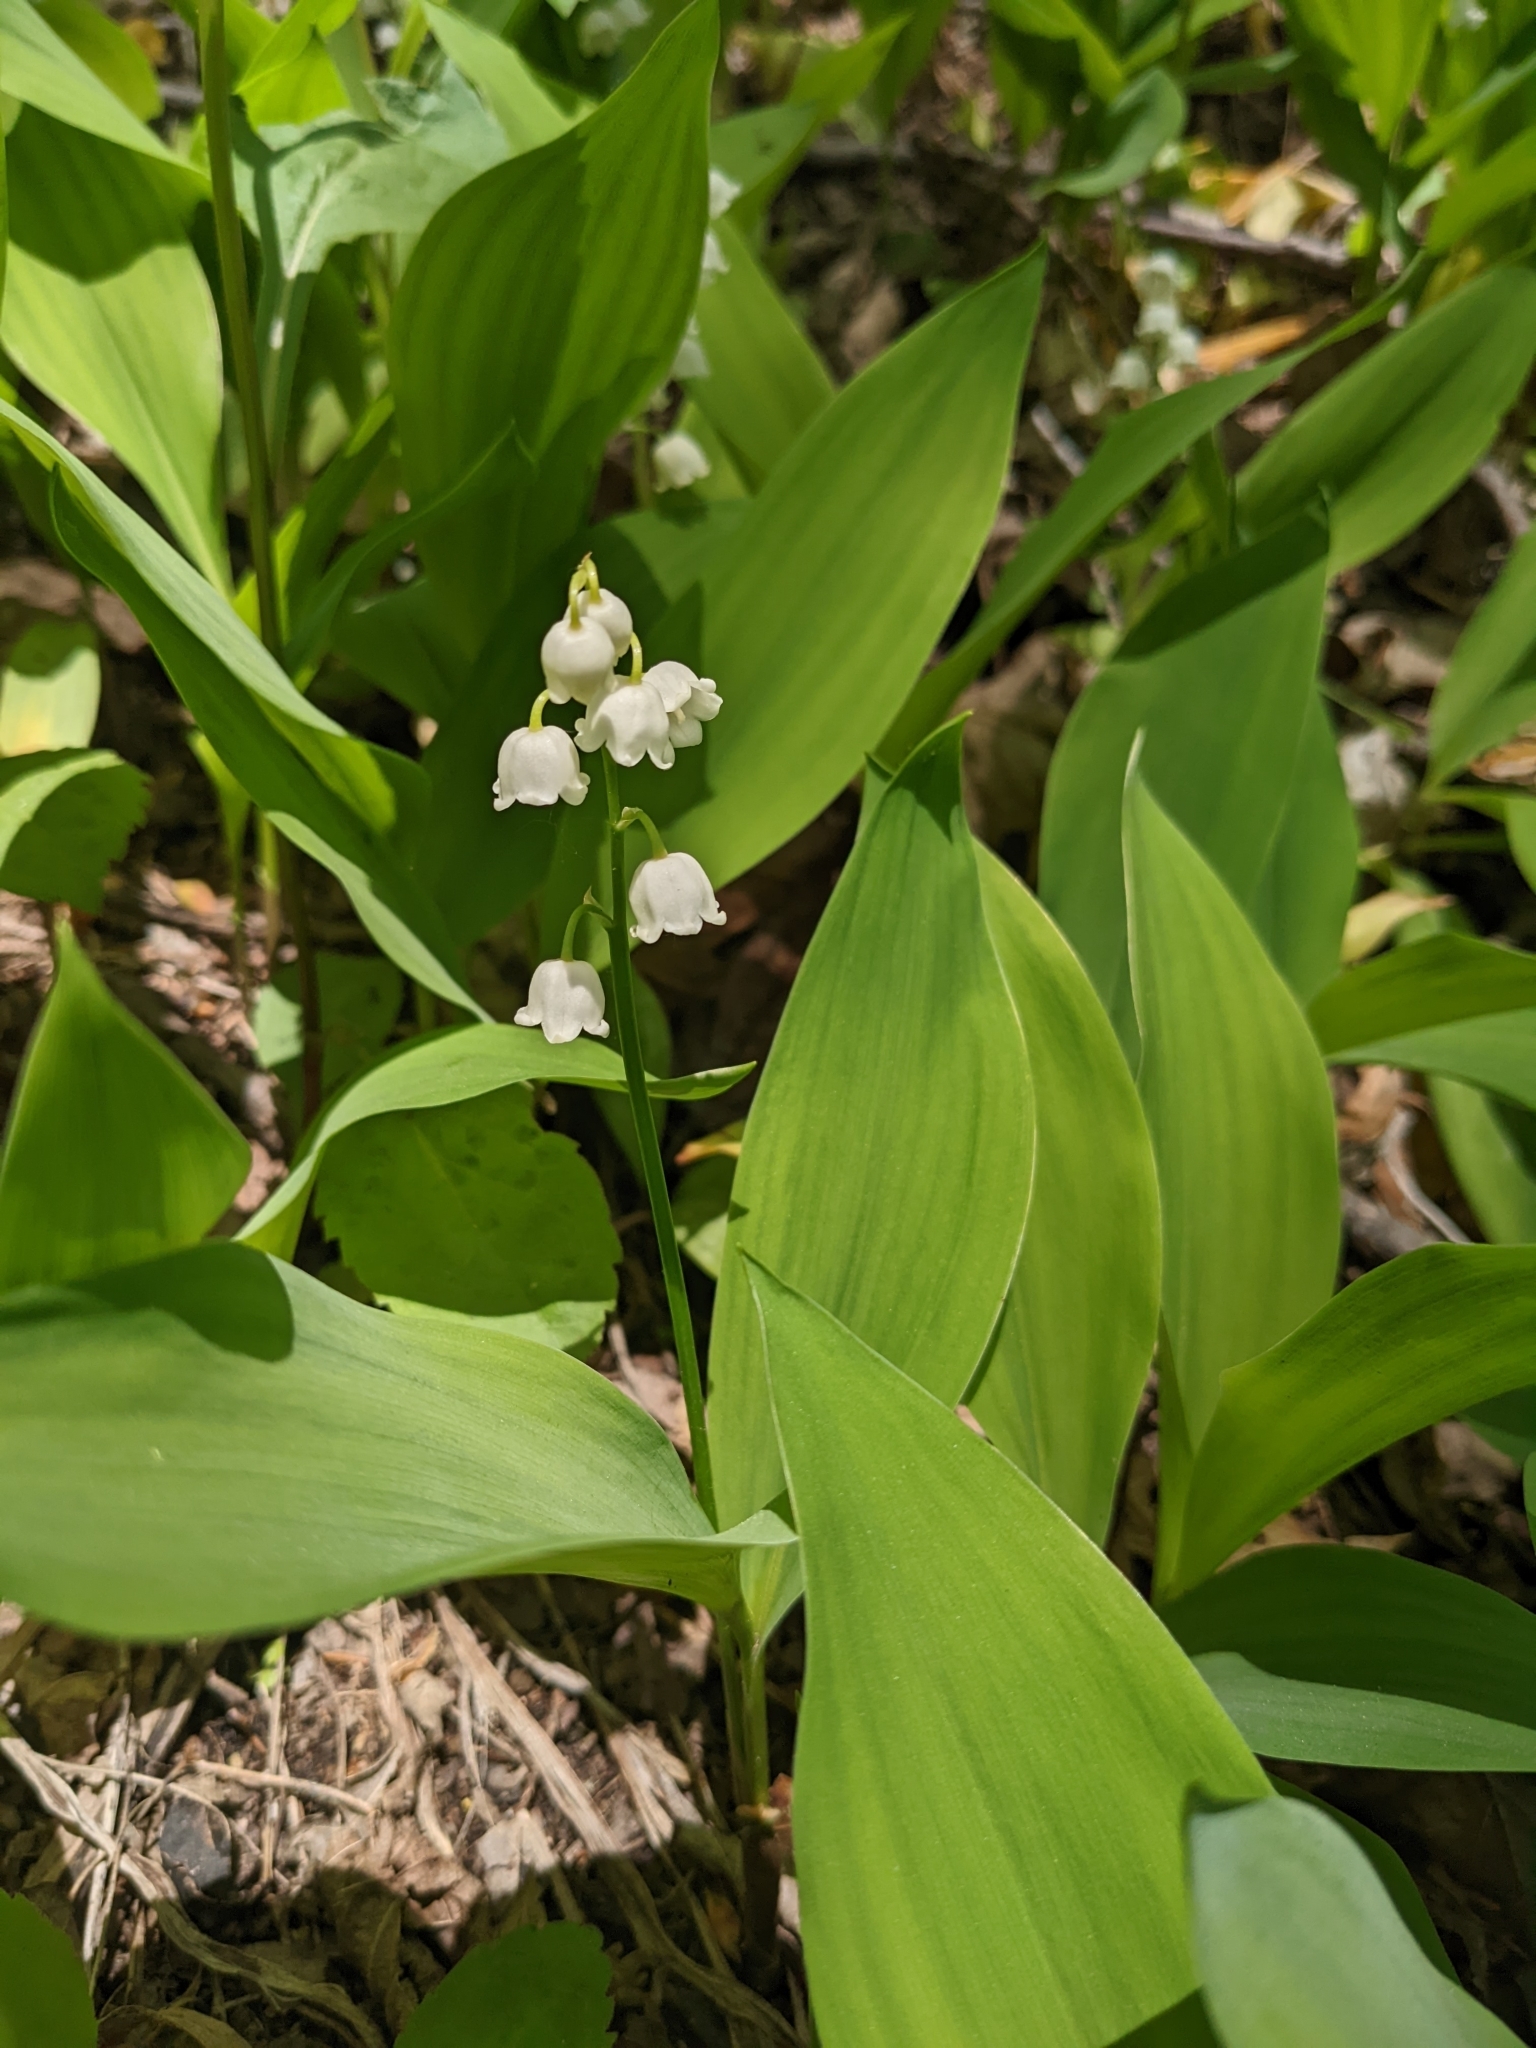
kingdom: Plantae
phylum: Tracheophyta
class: Liliopsida
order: Asparagales
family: Asparagaceae
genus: Convallaria
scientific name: Convallaria majalis
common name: Lily-of-the-valley
